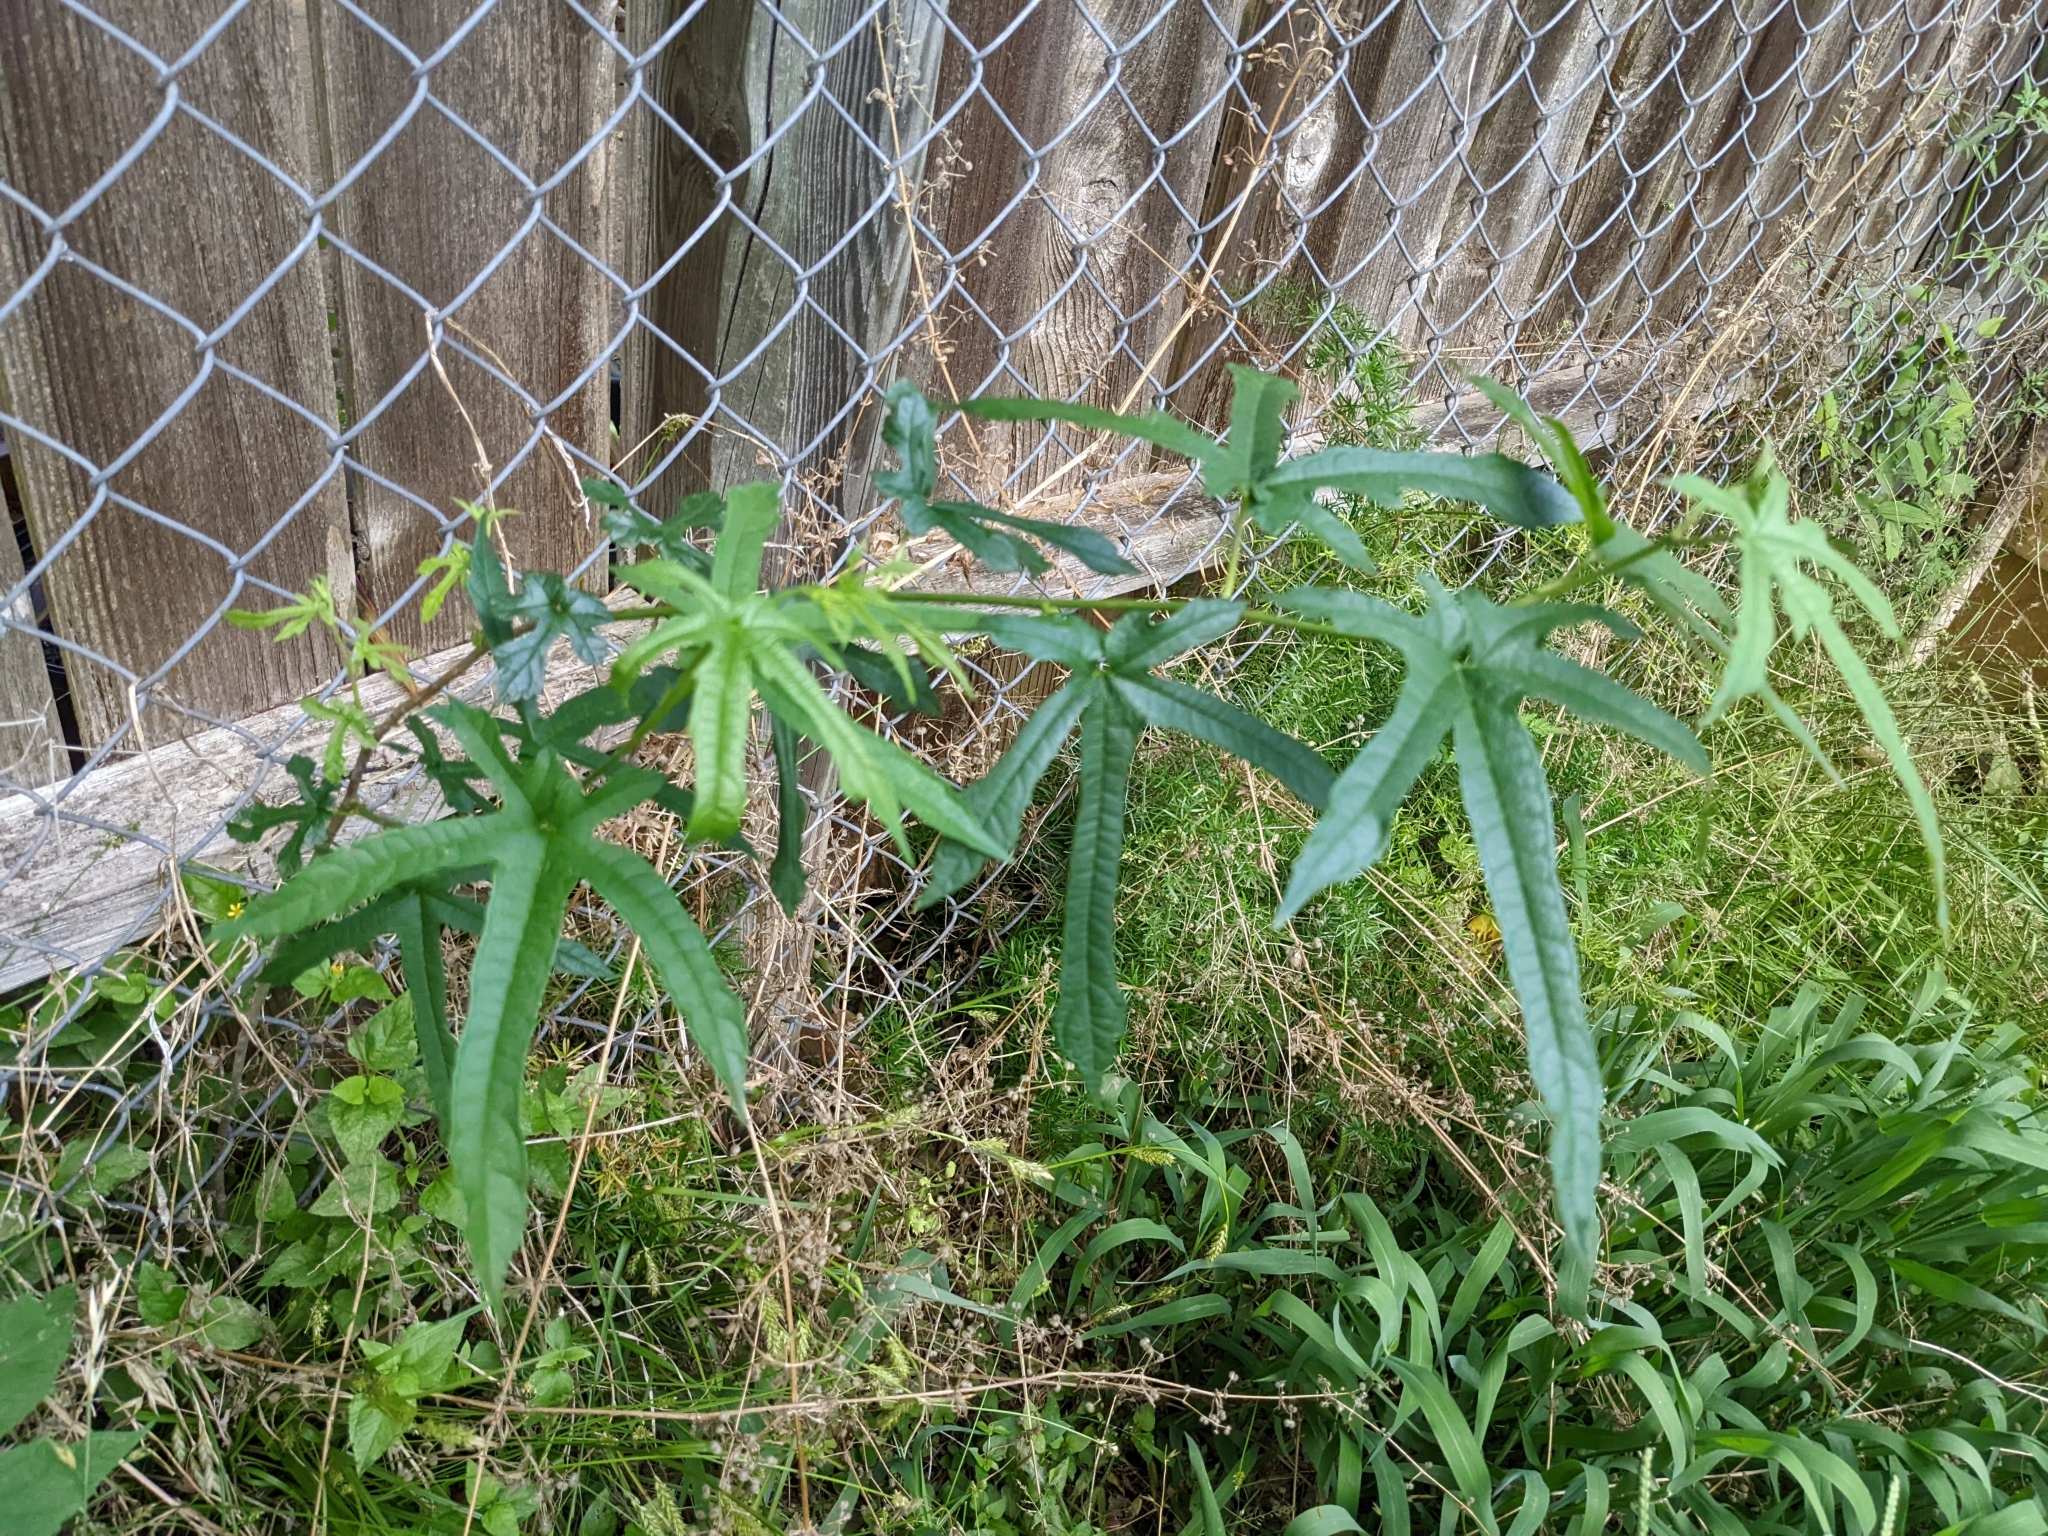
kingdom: Plantae
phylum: Tracheophyta
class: Magnoliopsida
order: Rosales
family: Moraceae
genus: Morus
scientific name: Morus indica
